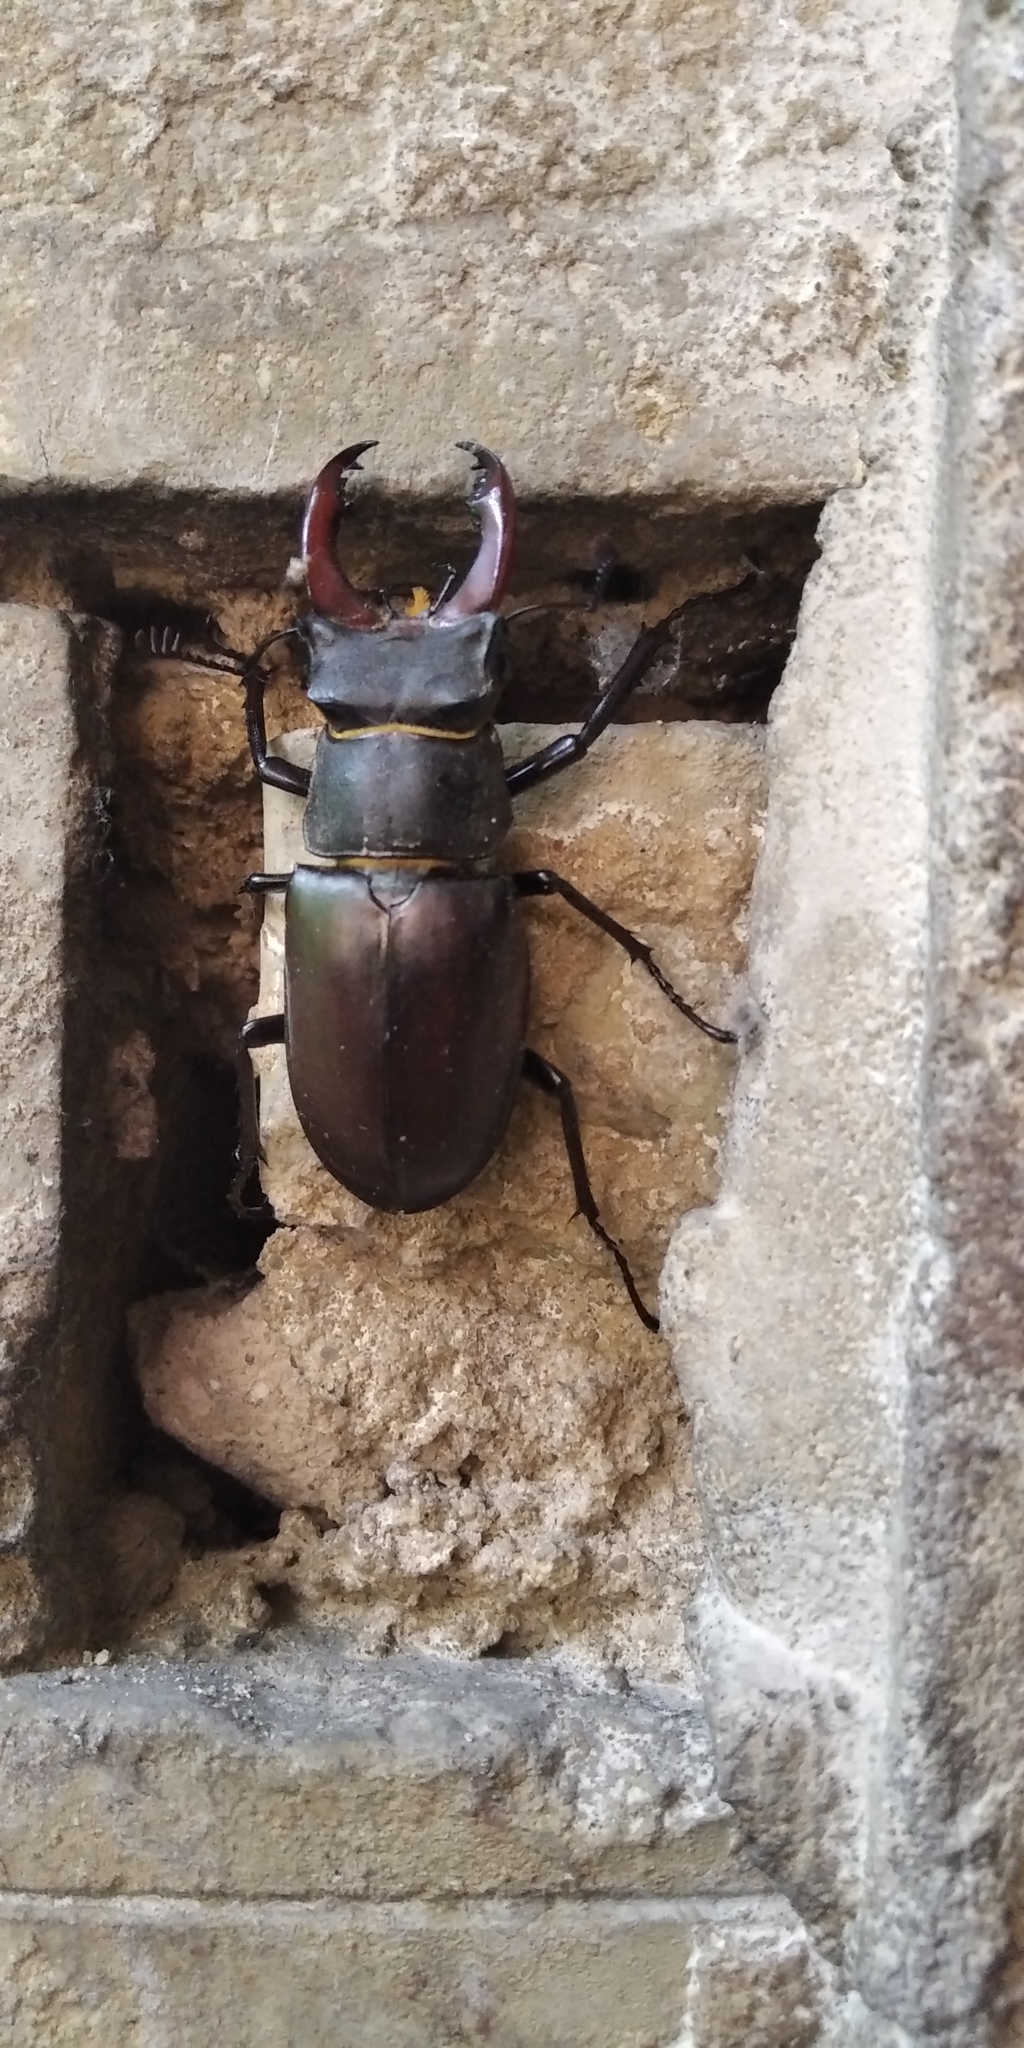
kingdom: Animalia
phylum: Arthropoda
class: Insecta
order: Coleoptera
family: Lucanidae
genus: Lucanus
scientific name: Lucanus cervus
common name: Stag beetle
